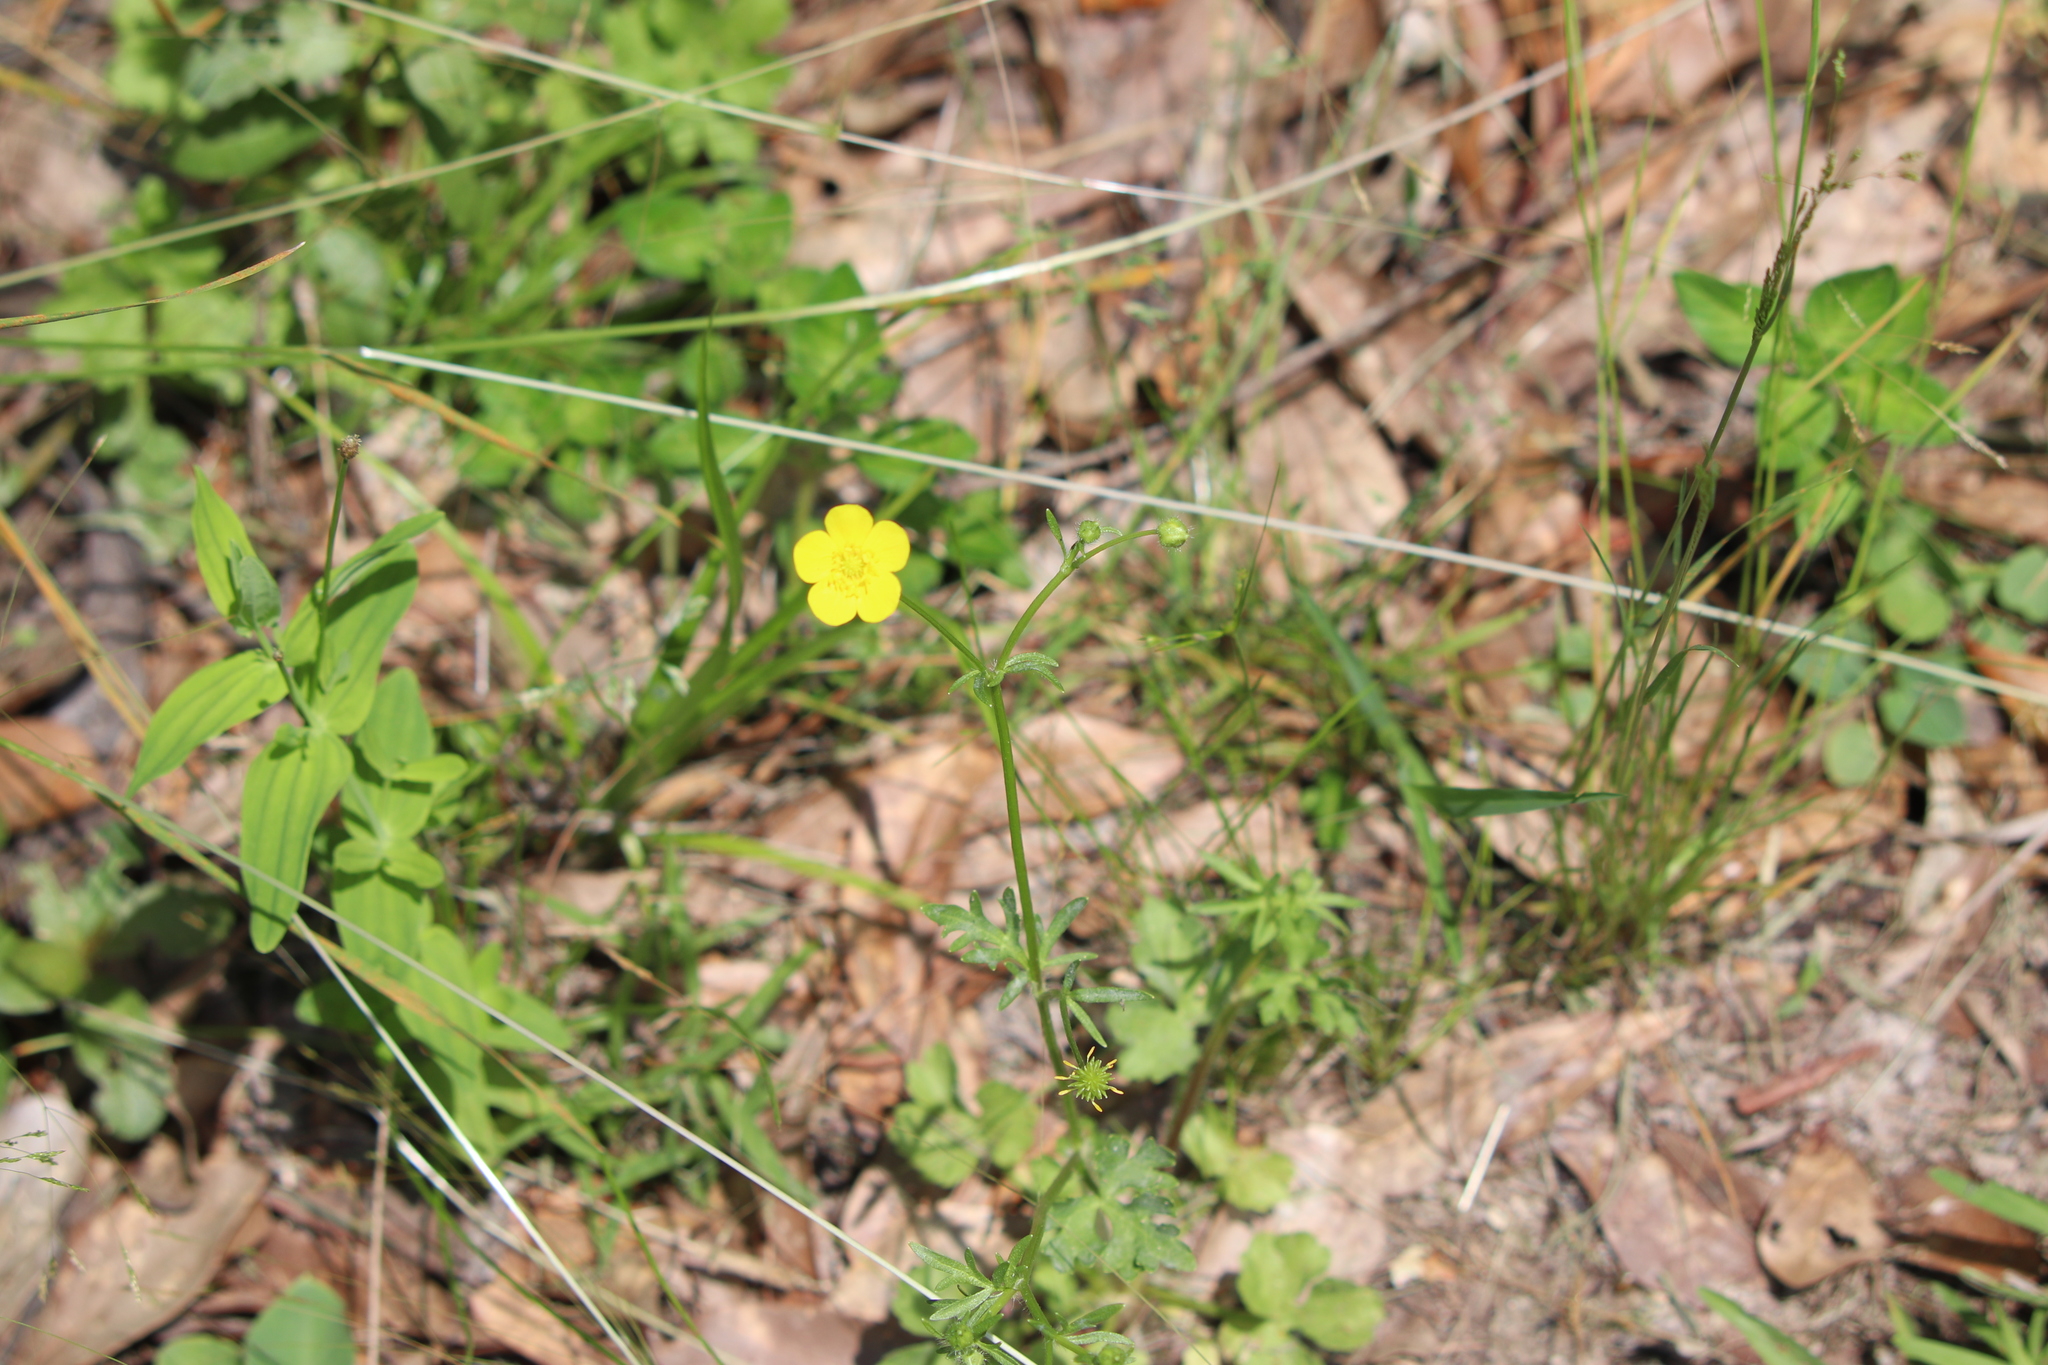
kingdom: Plantae
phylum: Tracheophyta
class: Magnoliopsida
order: Ranunculales
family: Ranunculaceae
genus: Ranunculus
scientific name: Ranunculus sardous
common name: Hairy buttercup
